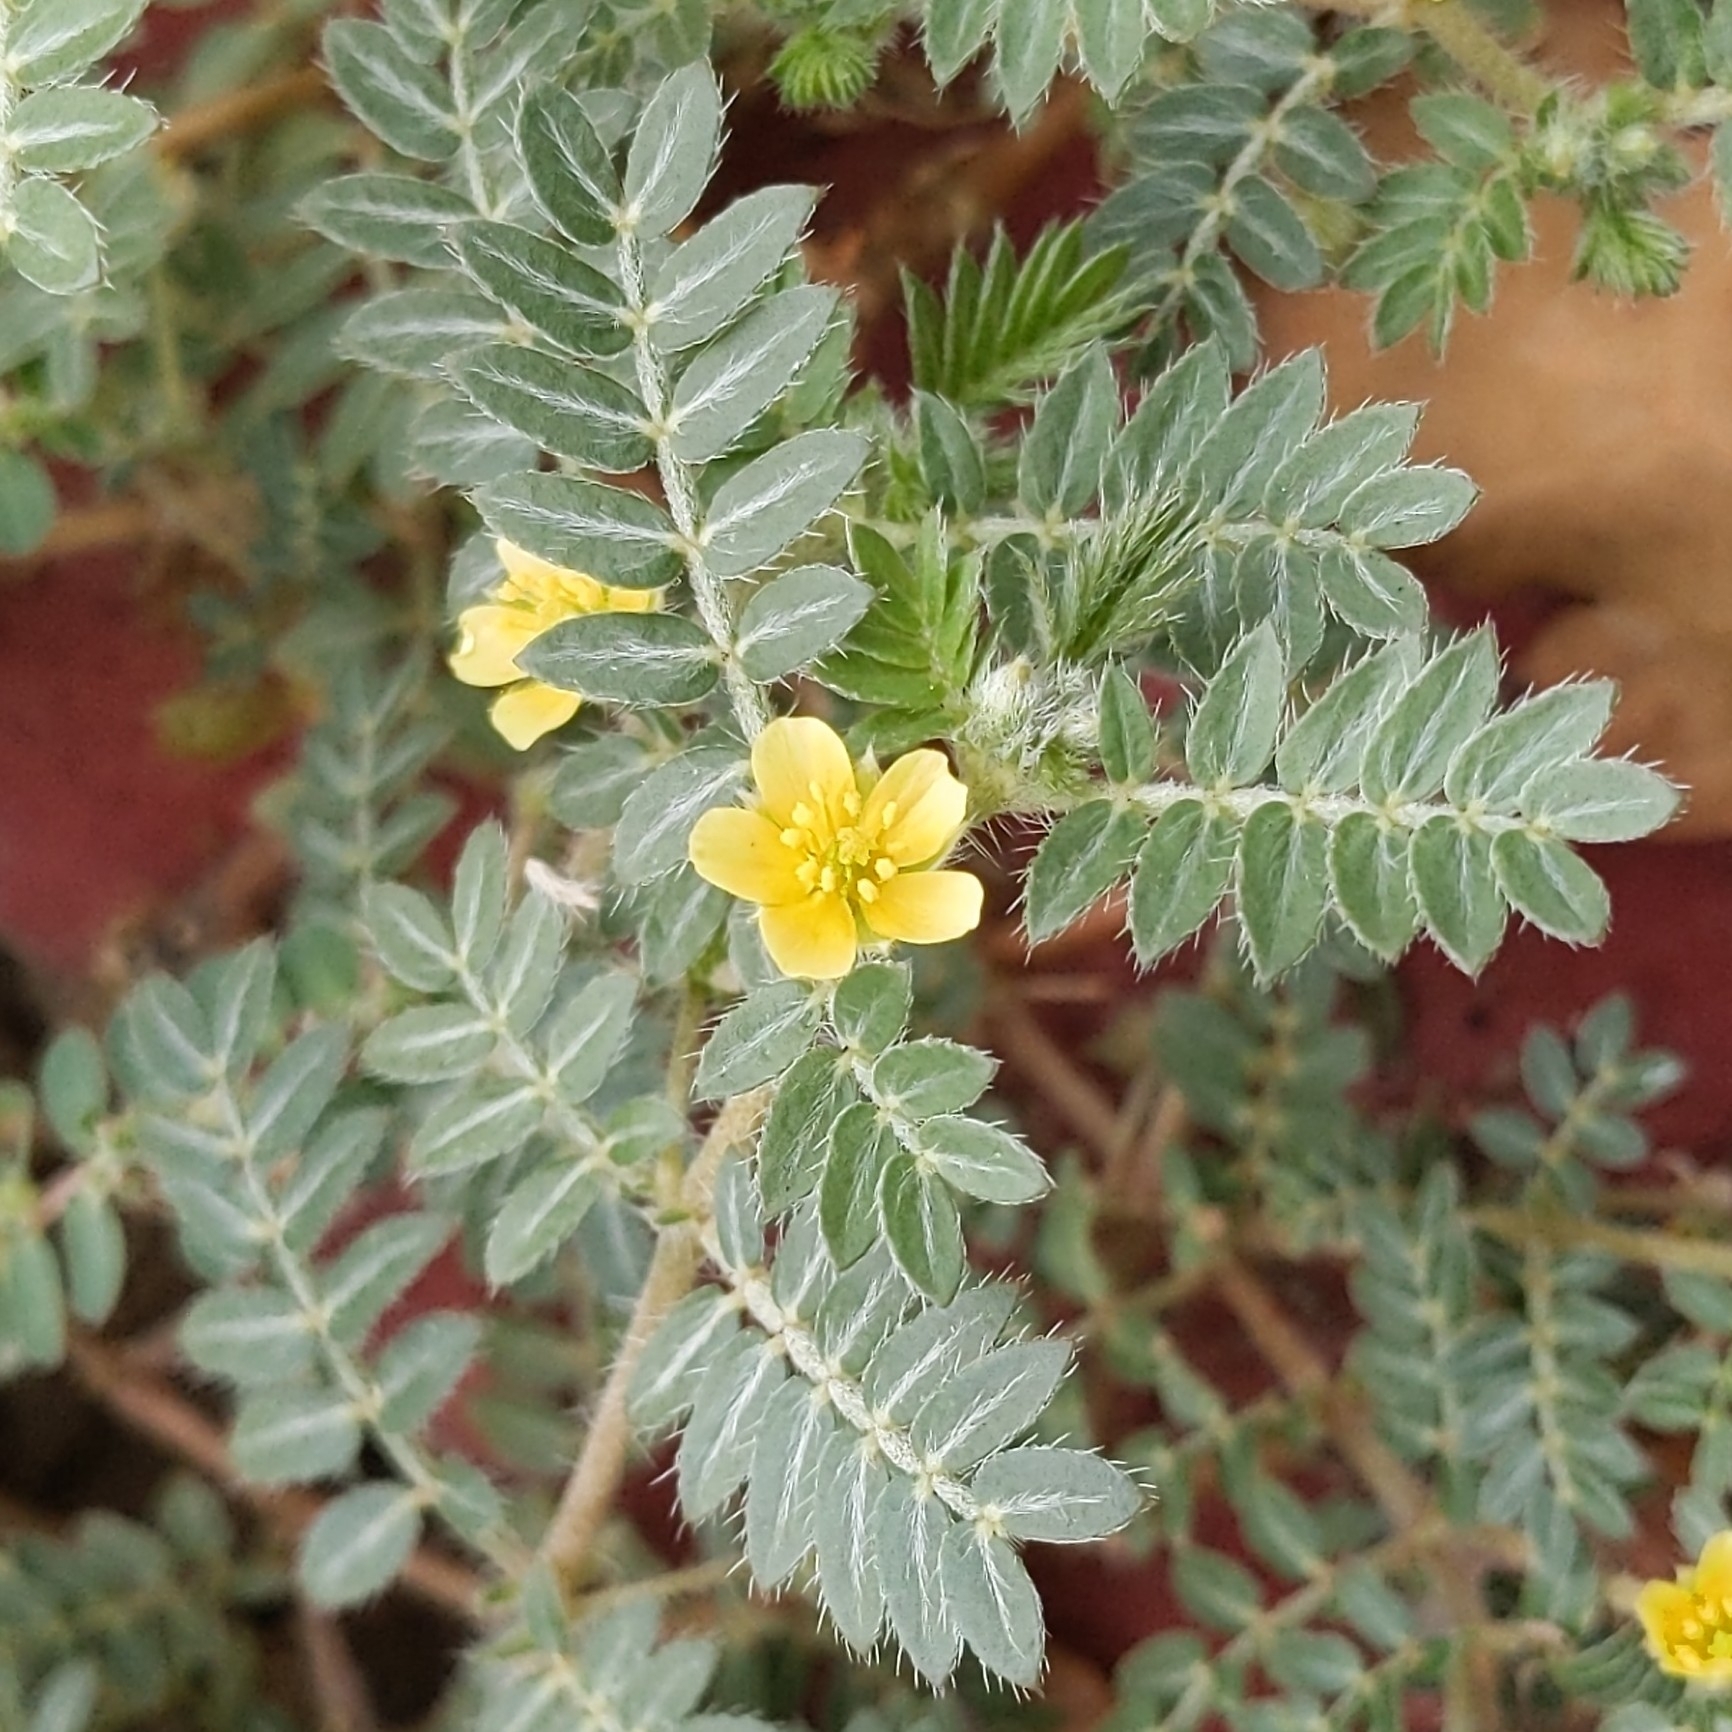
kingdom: Plantae
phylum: Tracheophyta
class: Magnoliopsida
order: Zygophyllales
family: Zygophyllaceae
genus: Tribulus
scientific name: Tribulus terrestris
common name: Puncturevine
